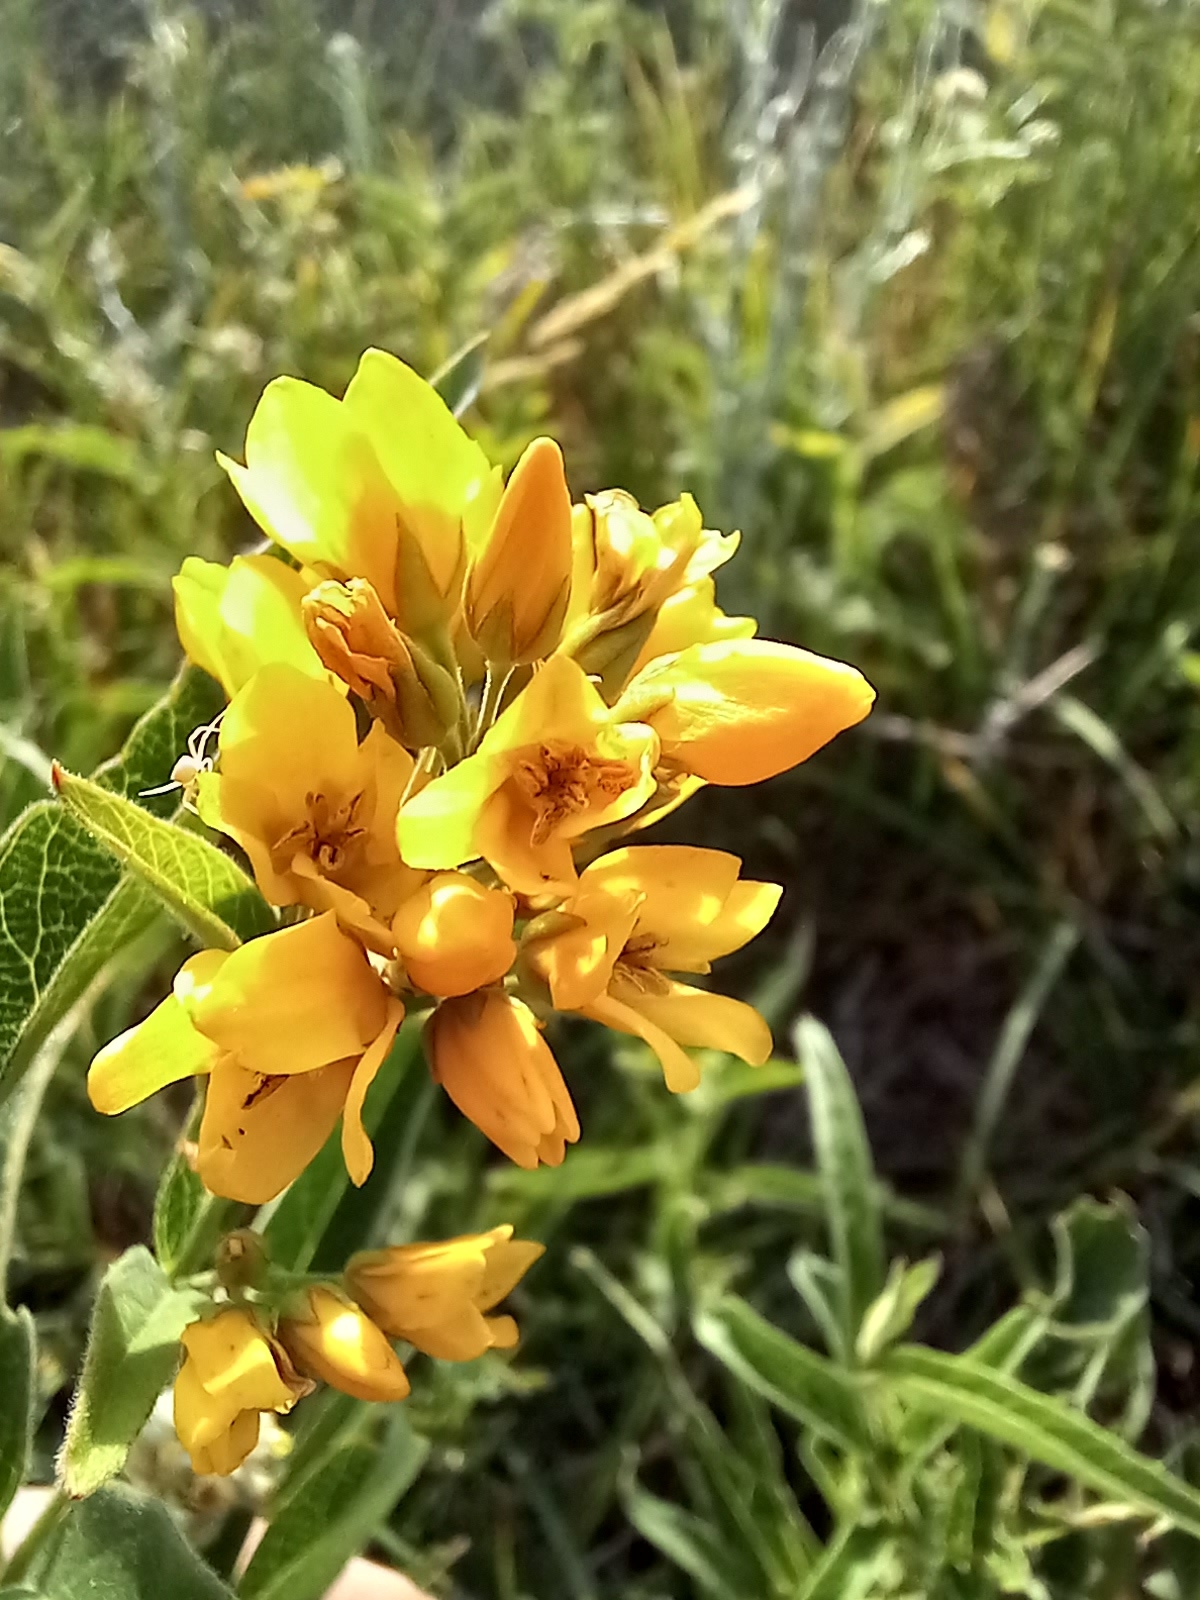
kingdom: Plantae
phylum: Tracheophyta
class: Magnoliopsida
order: Ericales
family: Primulaceae
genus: Lysimachia
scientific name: Lysimachia vulgaris
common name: Yellow loosestrife
